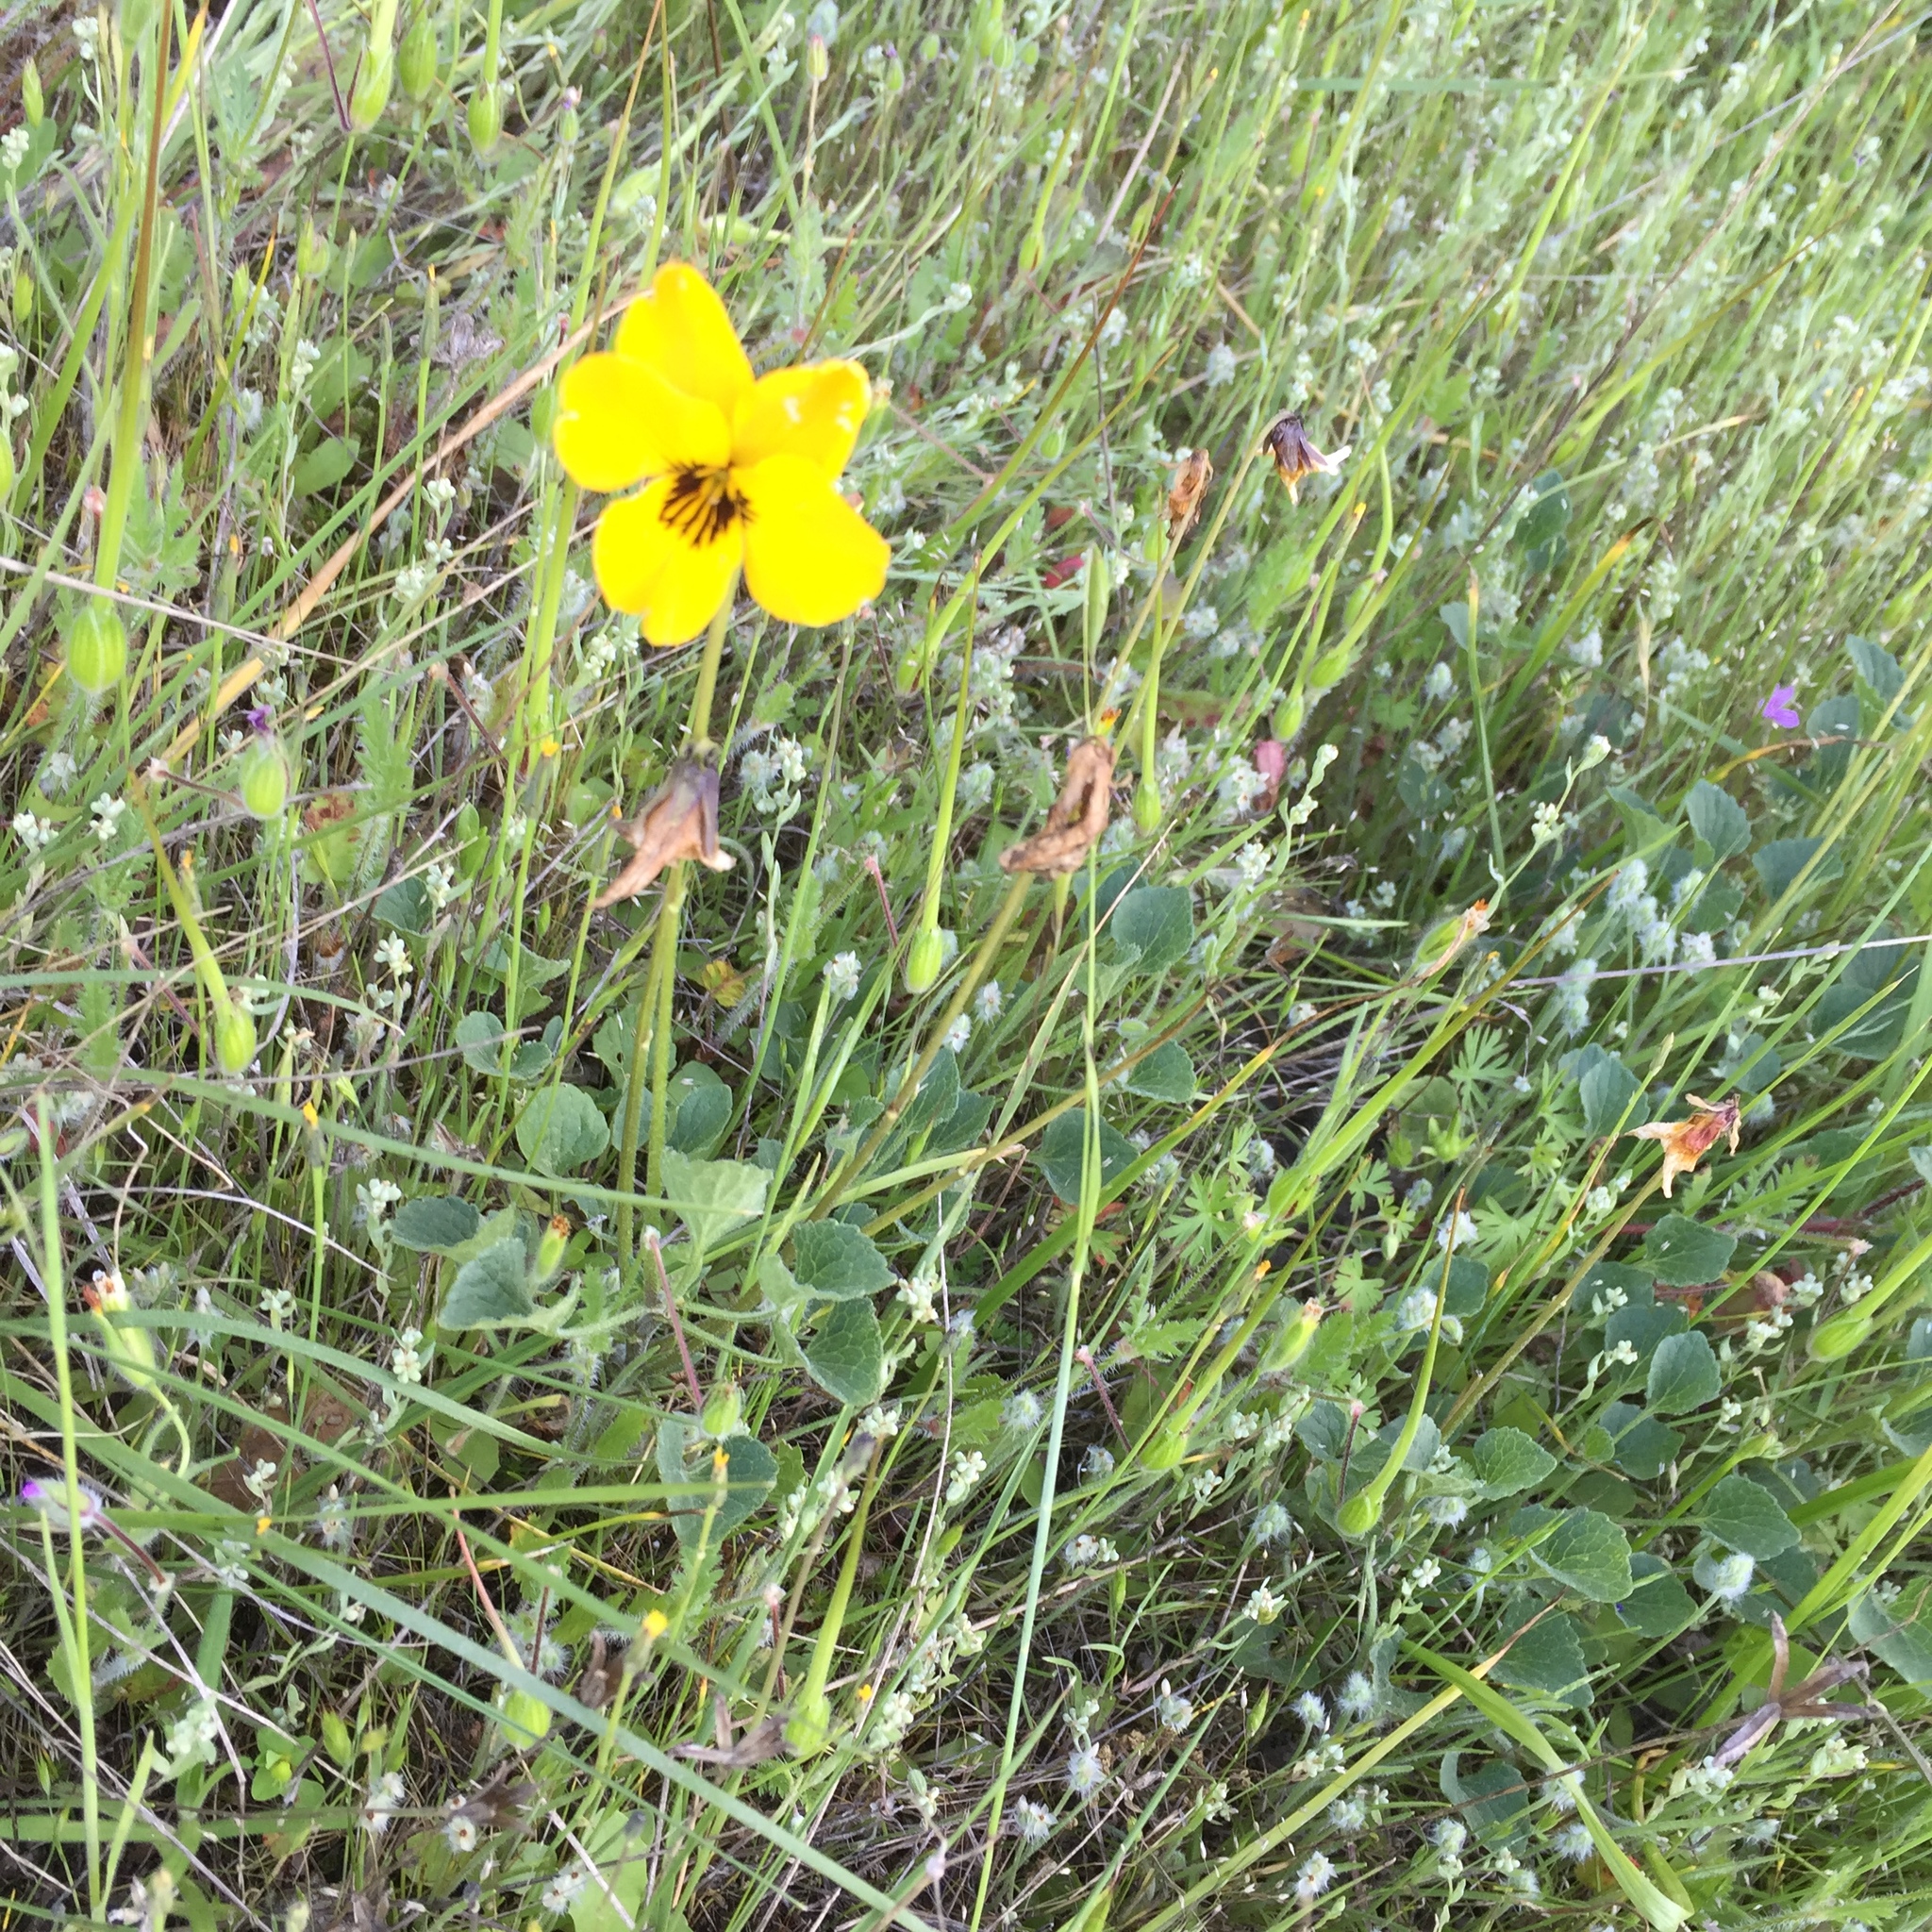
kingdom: Plantae
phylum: Tracheophyta
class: Magnoliopsida
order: Malpighiales
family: Violaceae
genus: Viola
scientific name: Viola pedunculata
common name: California golden violet
